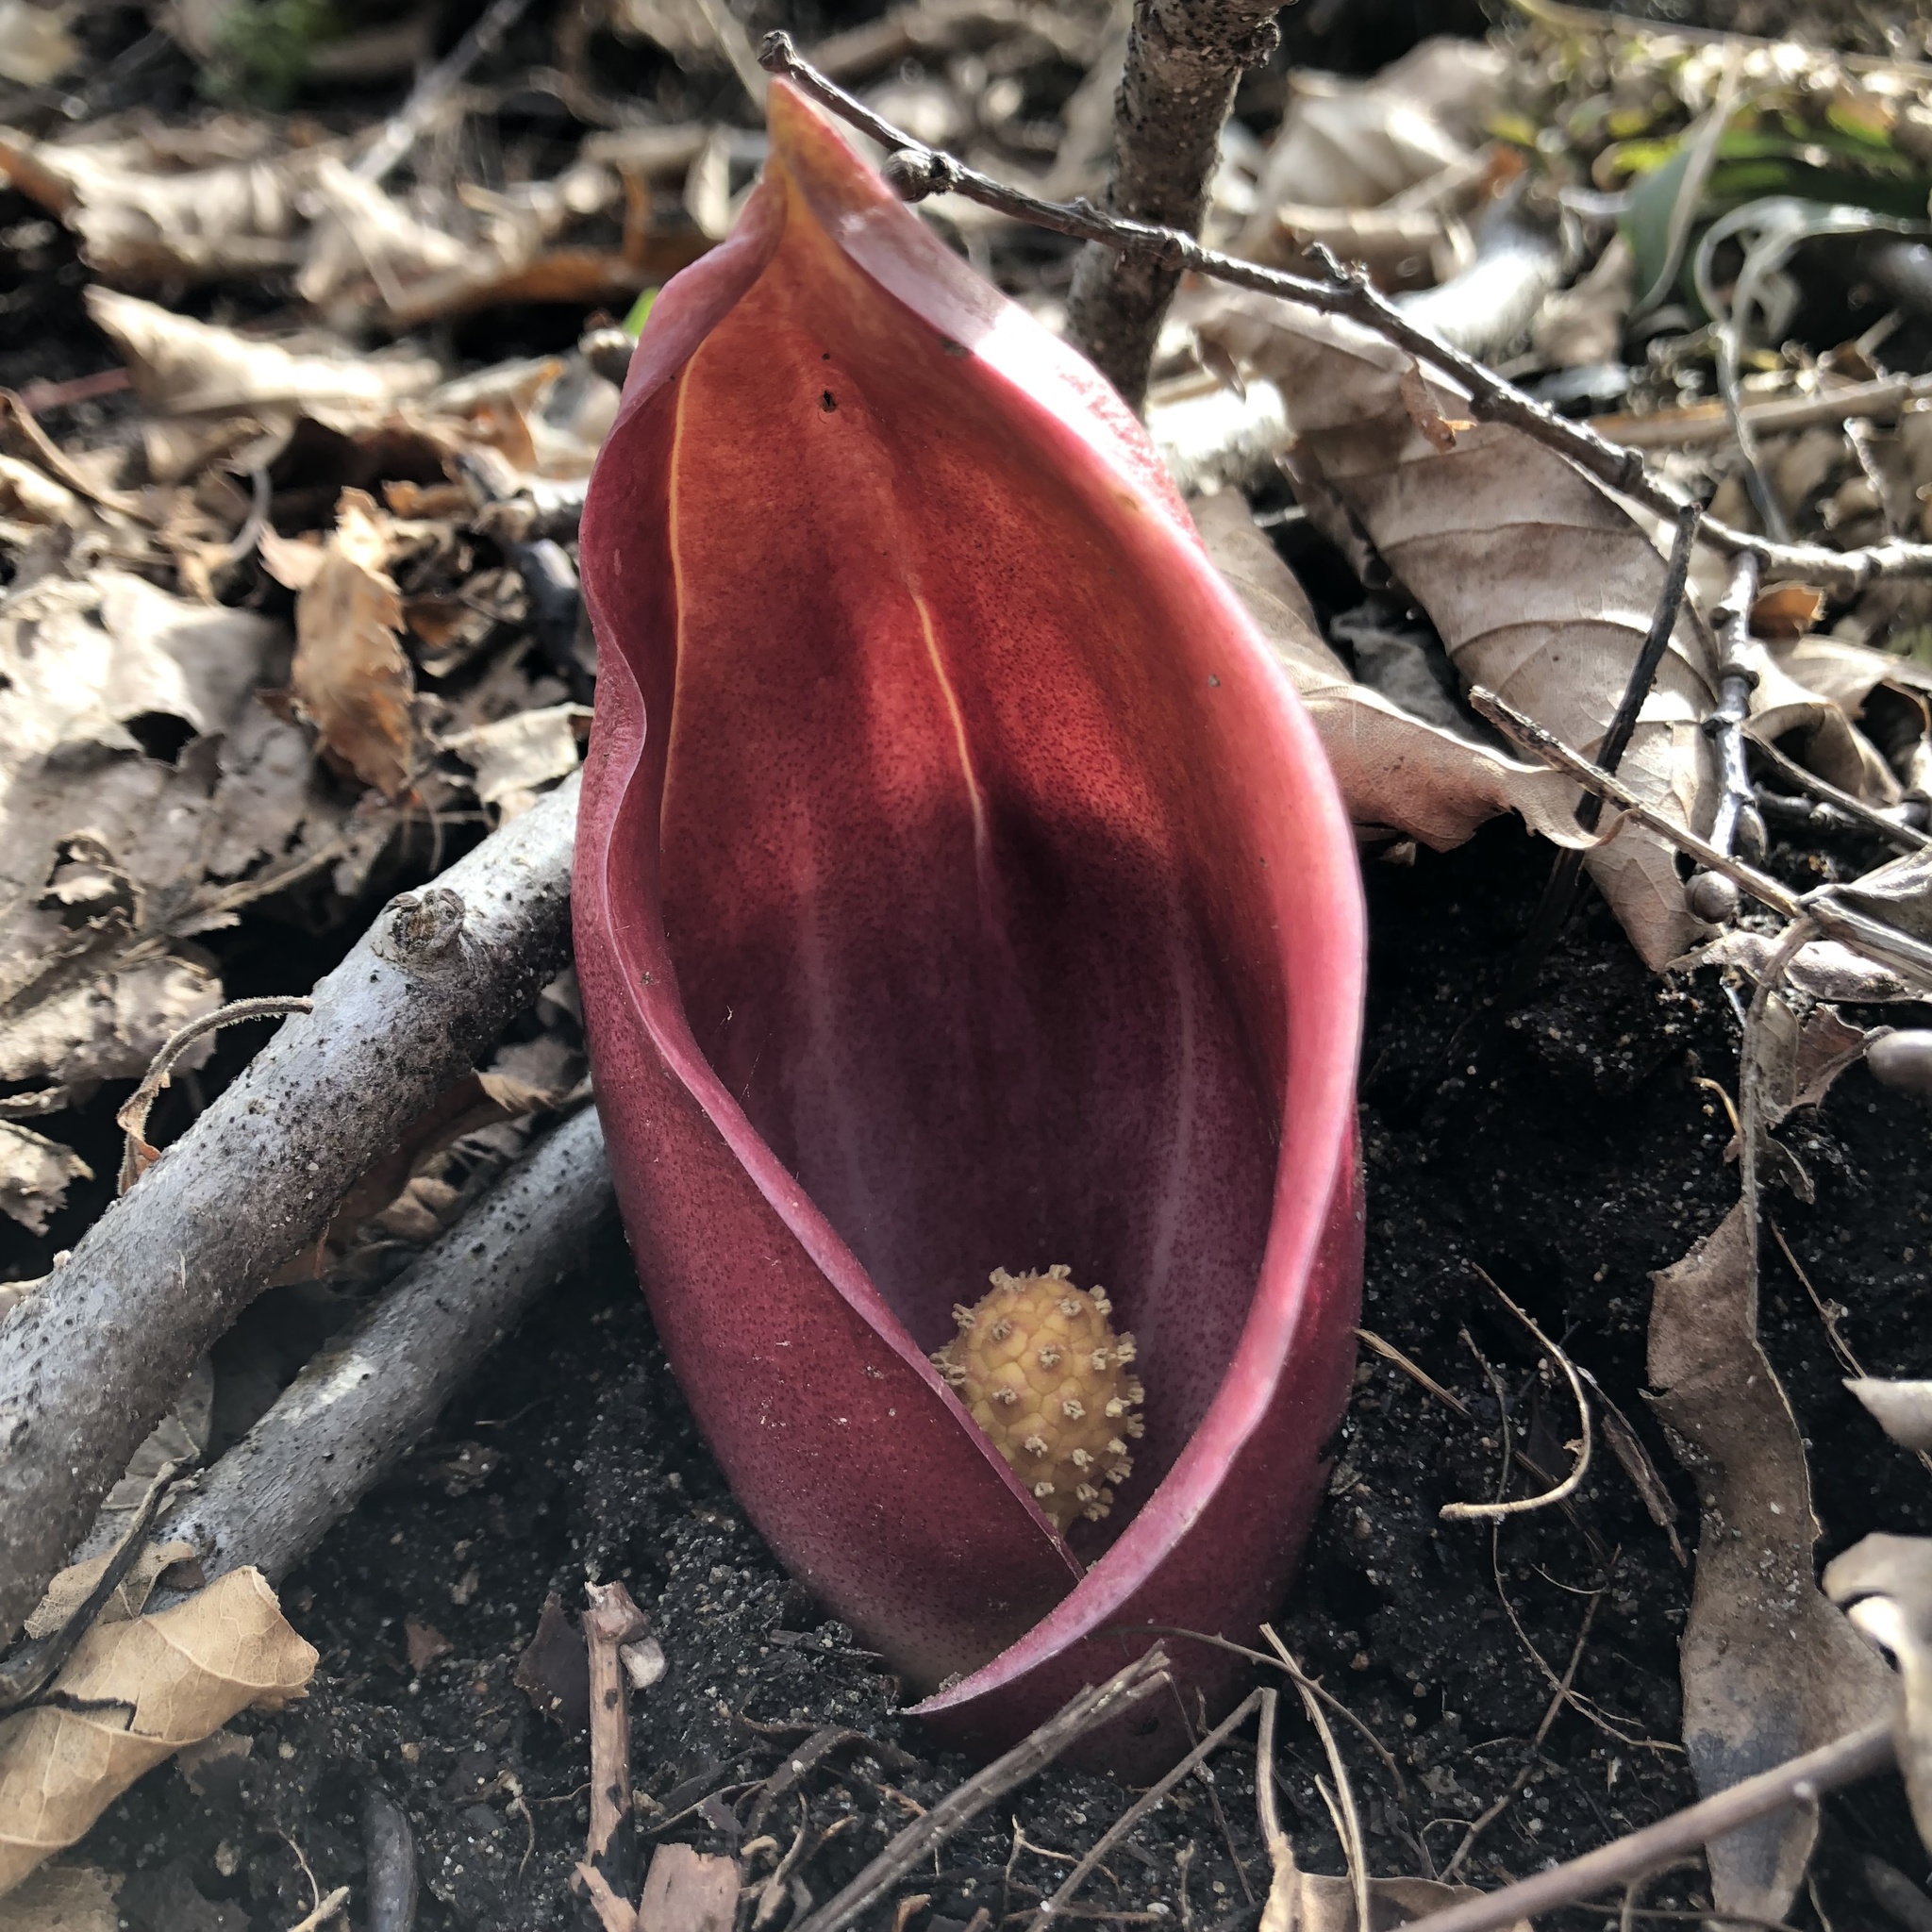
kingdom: Plantae
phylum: Tracheophyta
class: Liliopsida
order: Alismatales
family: Araceae
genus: Symplocarpus
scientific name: Symplocarpus renifolius
